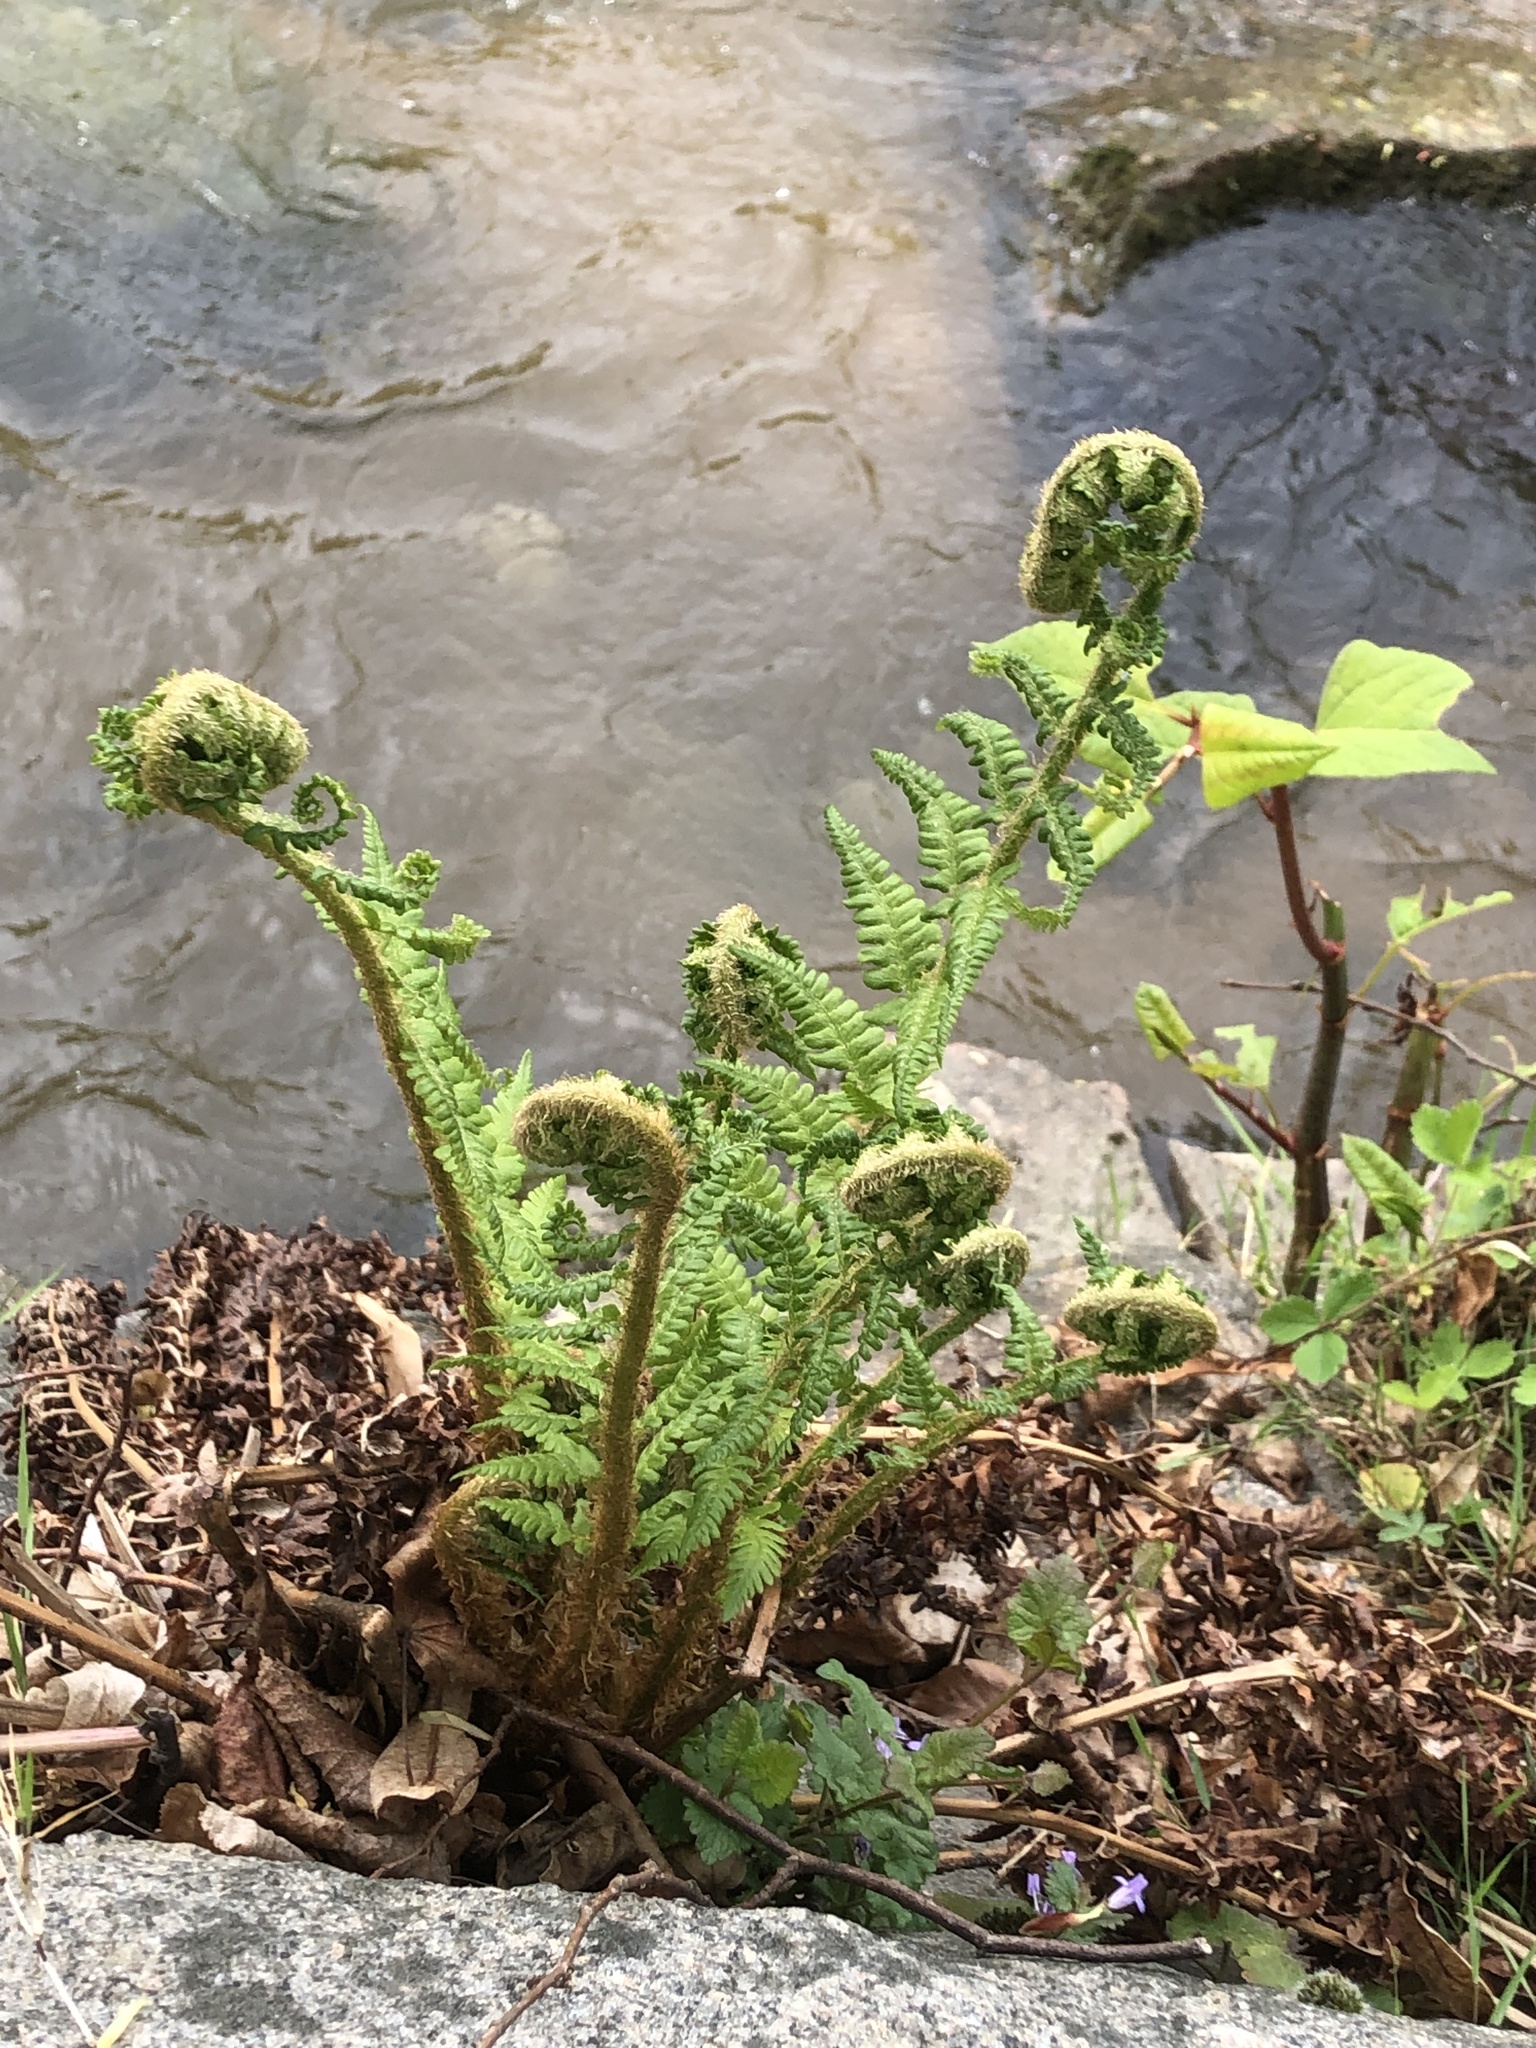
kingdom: Plantae
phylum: Tracheophyta
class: Polypodiopsida
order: Polypodiales
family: Dryopteridaceae
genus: Dryopteris
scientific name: Dryopteris filix-mas
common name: Male fern
